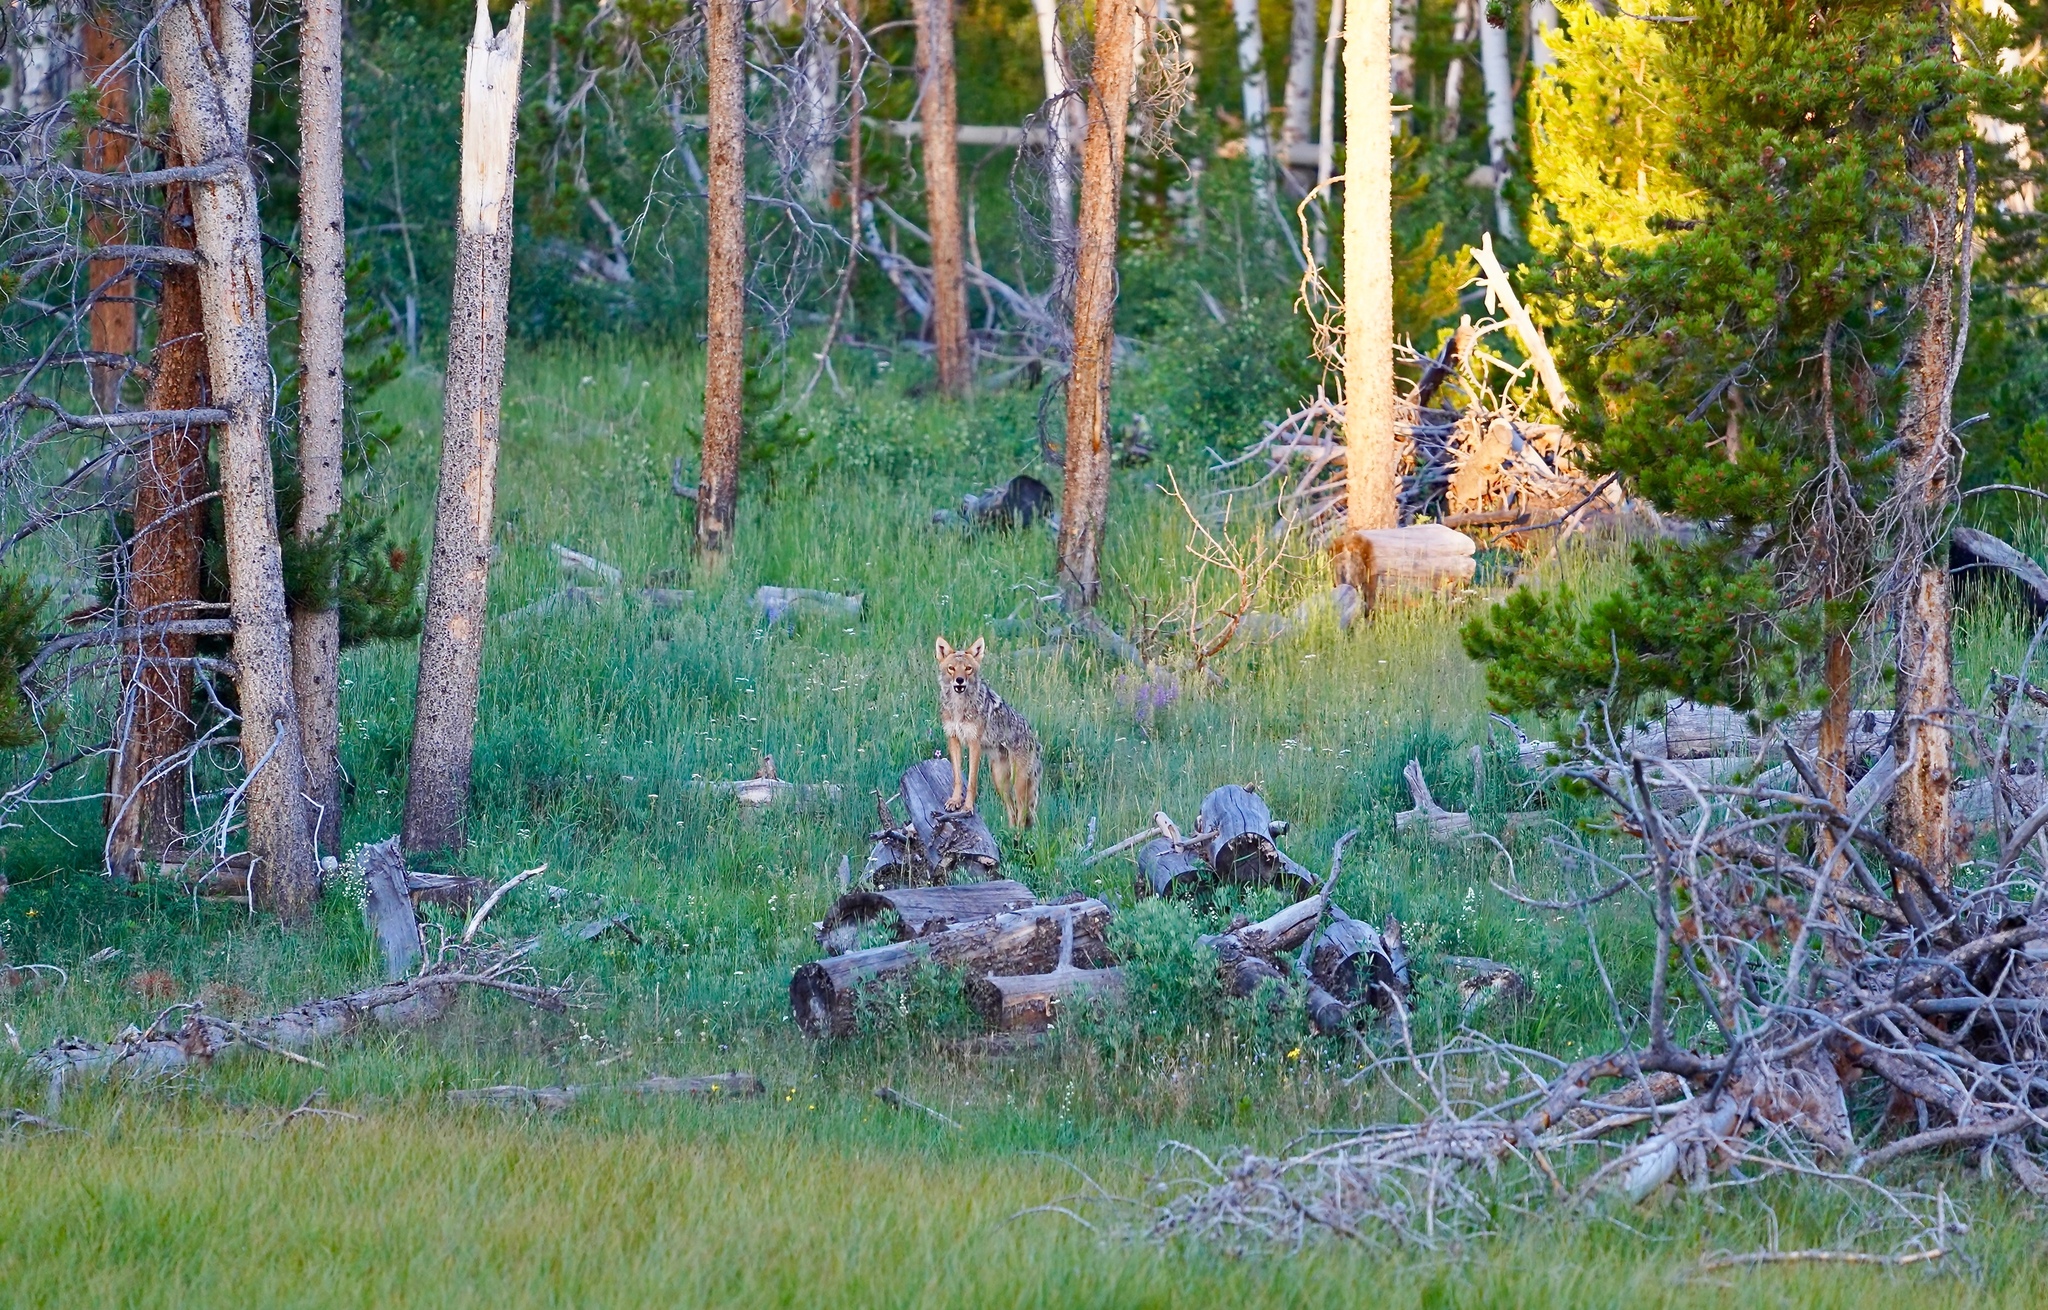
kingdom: Animalia
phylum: Chordata
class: Mammalia
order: Carnivora
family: Canidae
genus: Canis
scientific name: Canis latrans
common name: Coyote
